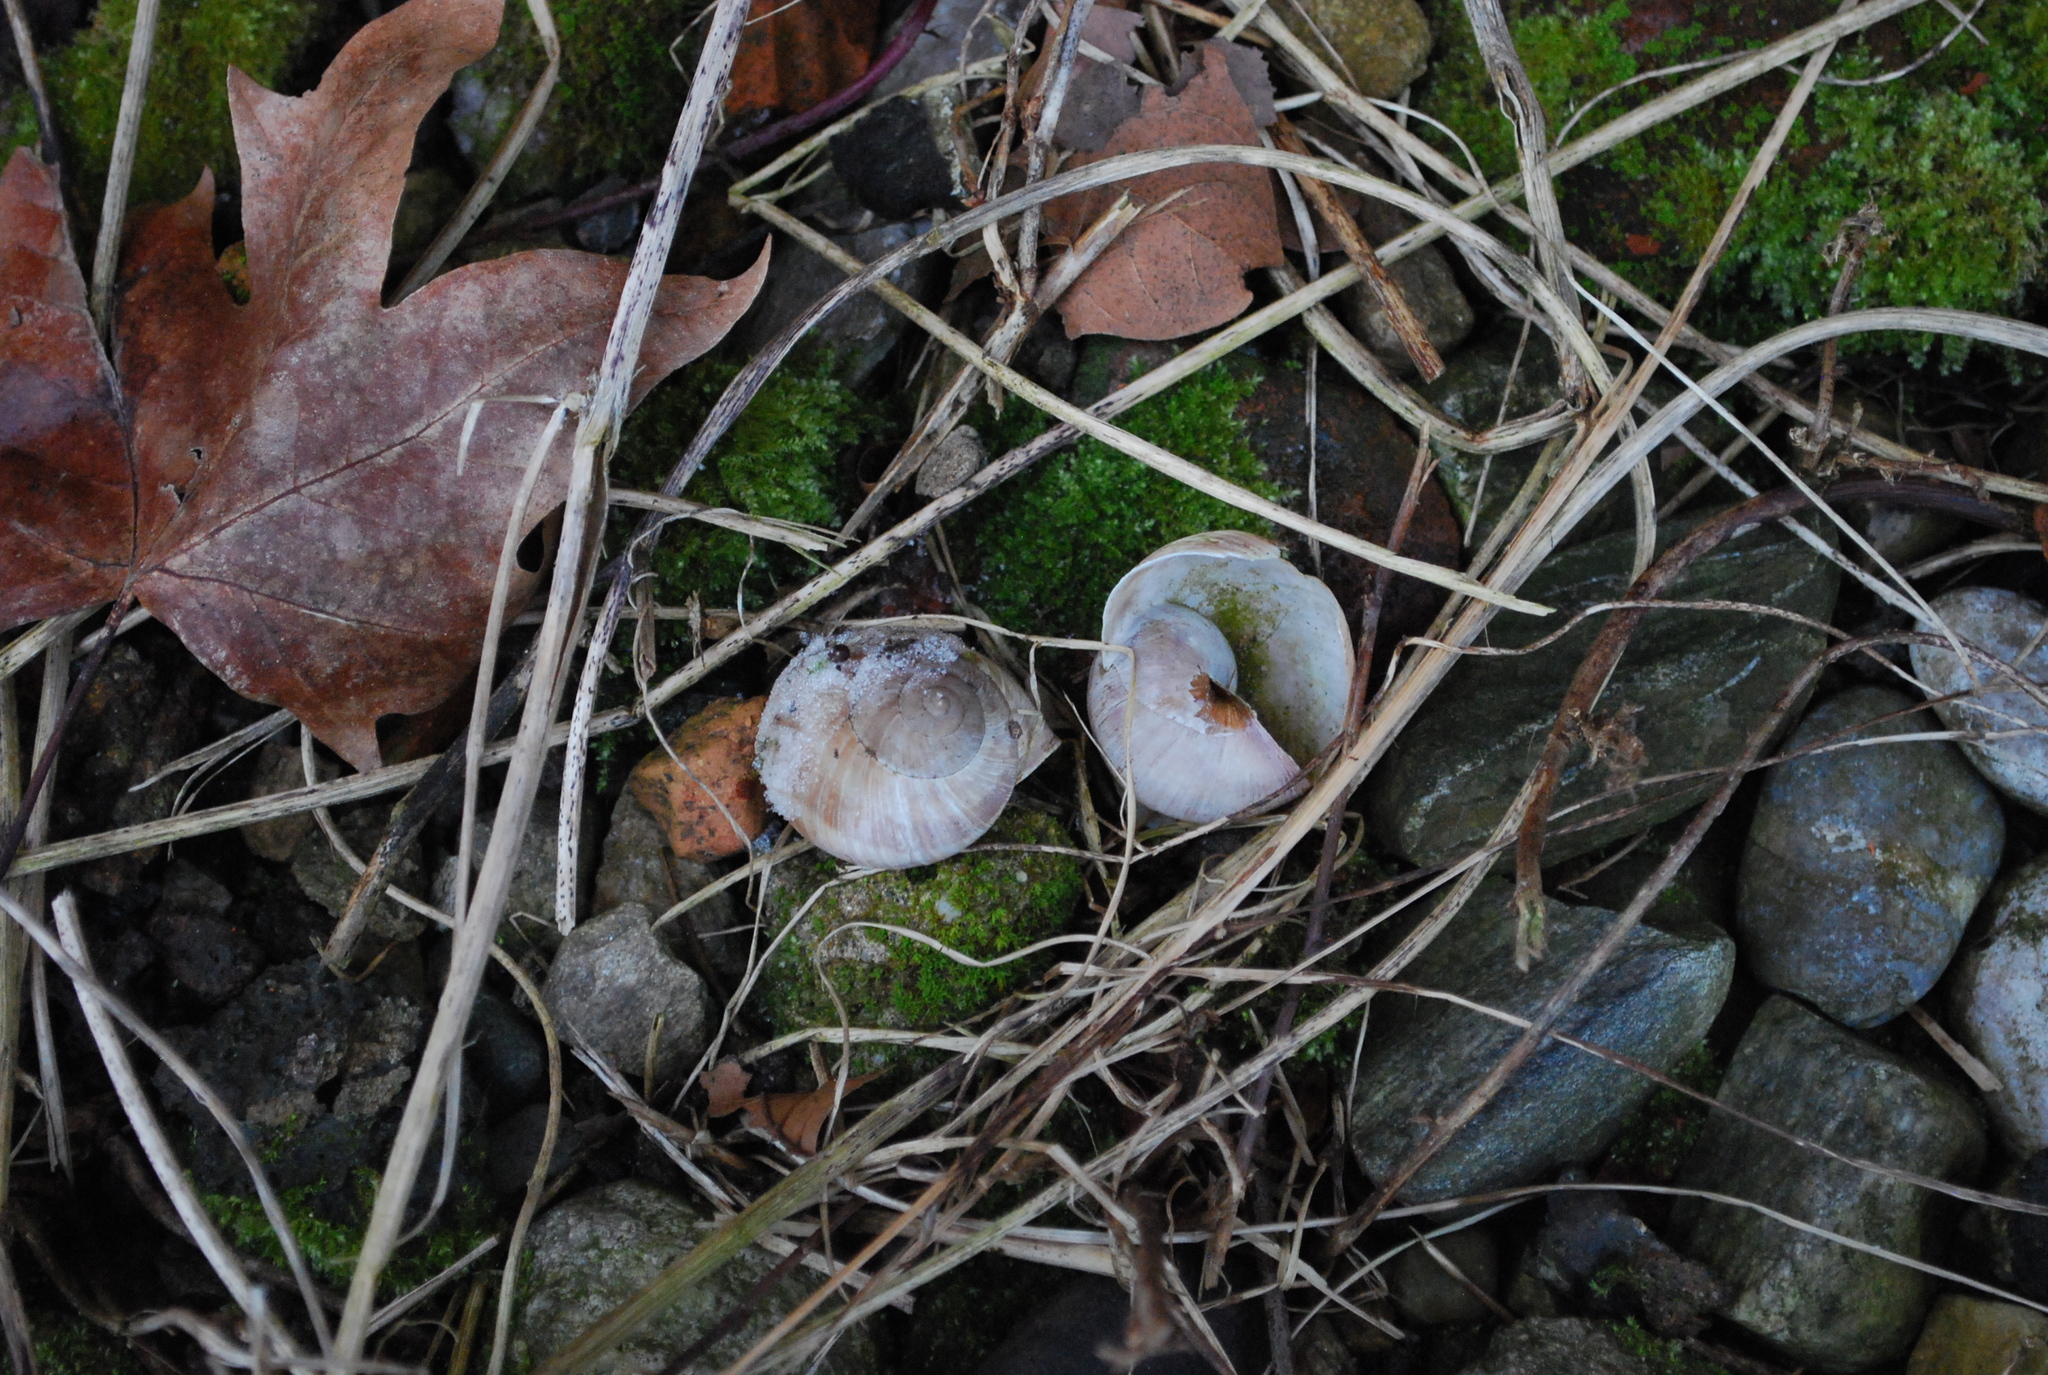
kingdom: Animalia
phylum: Mollusca
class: Gastropoda
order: Stylommatophora
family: Helicidae
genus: Helix
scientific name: Helix pomatia
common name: Roman snail
